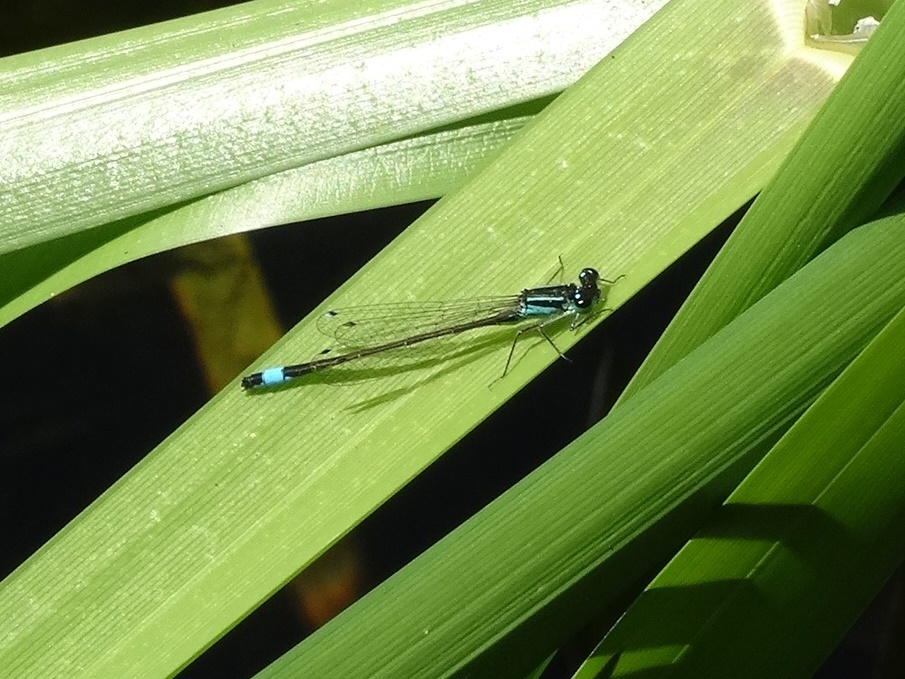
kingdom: Animalia
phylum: Arthropoda
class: Insecta
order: Odonata
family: Coenagrionidae
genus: Ischnura
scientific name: Ischnura elegans
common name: Blue-tailed damselfly
